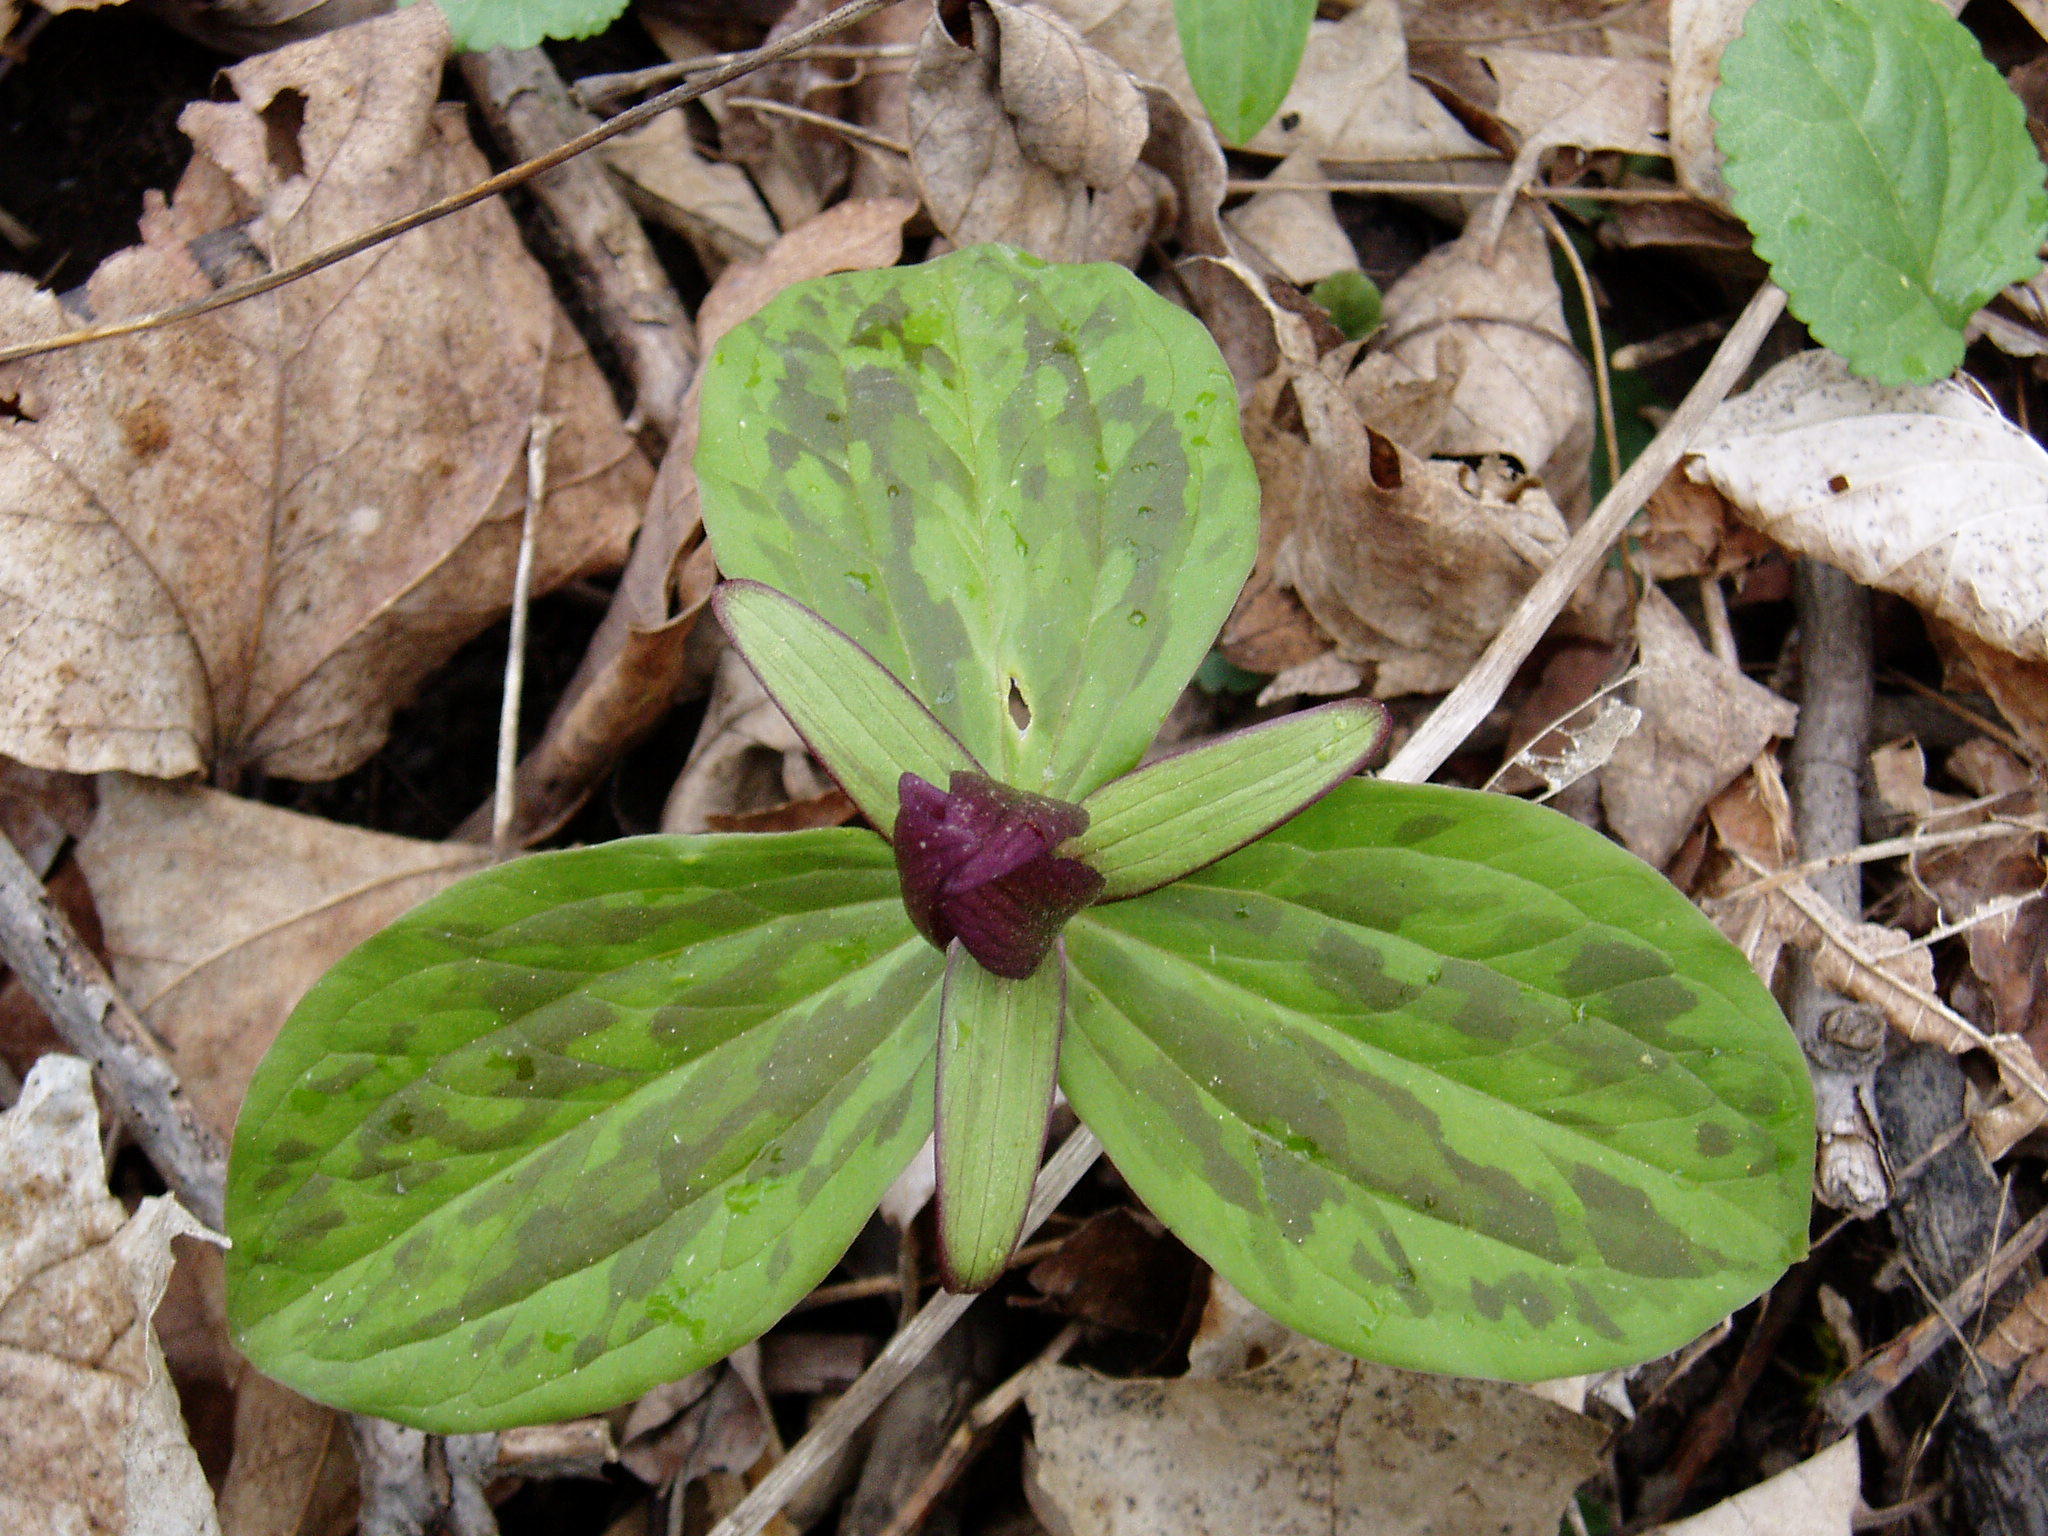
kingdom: Plantae
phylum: Tracheophyta
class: Liliopsida
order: Liliales
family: Melanthiaceae
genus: Trillium
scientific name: Trillium sessile
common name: Sessile trillium
